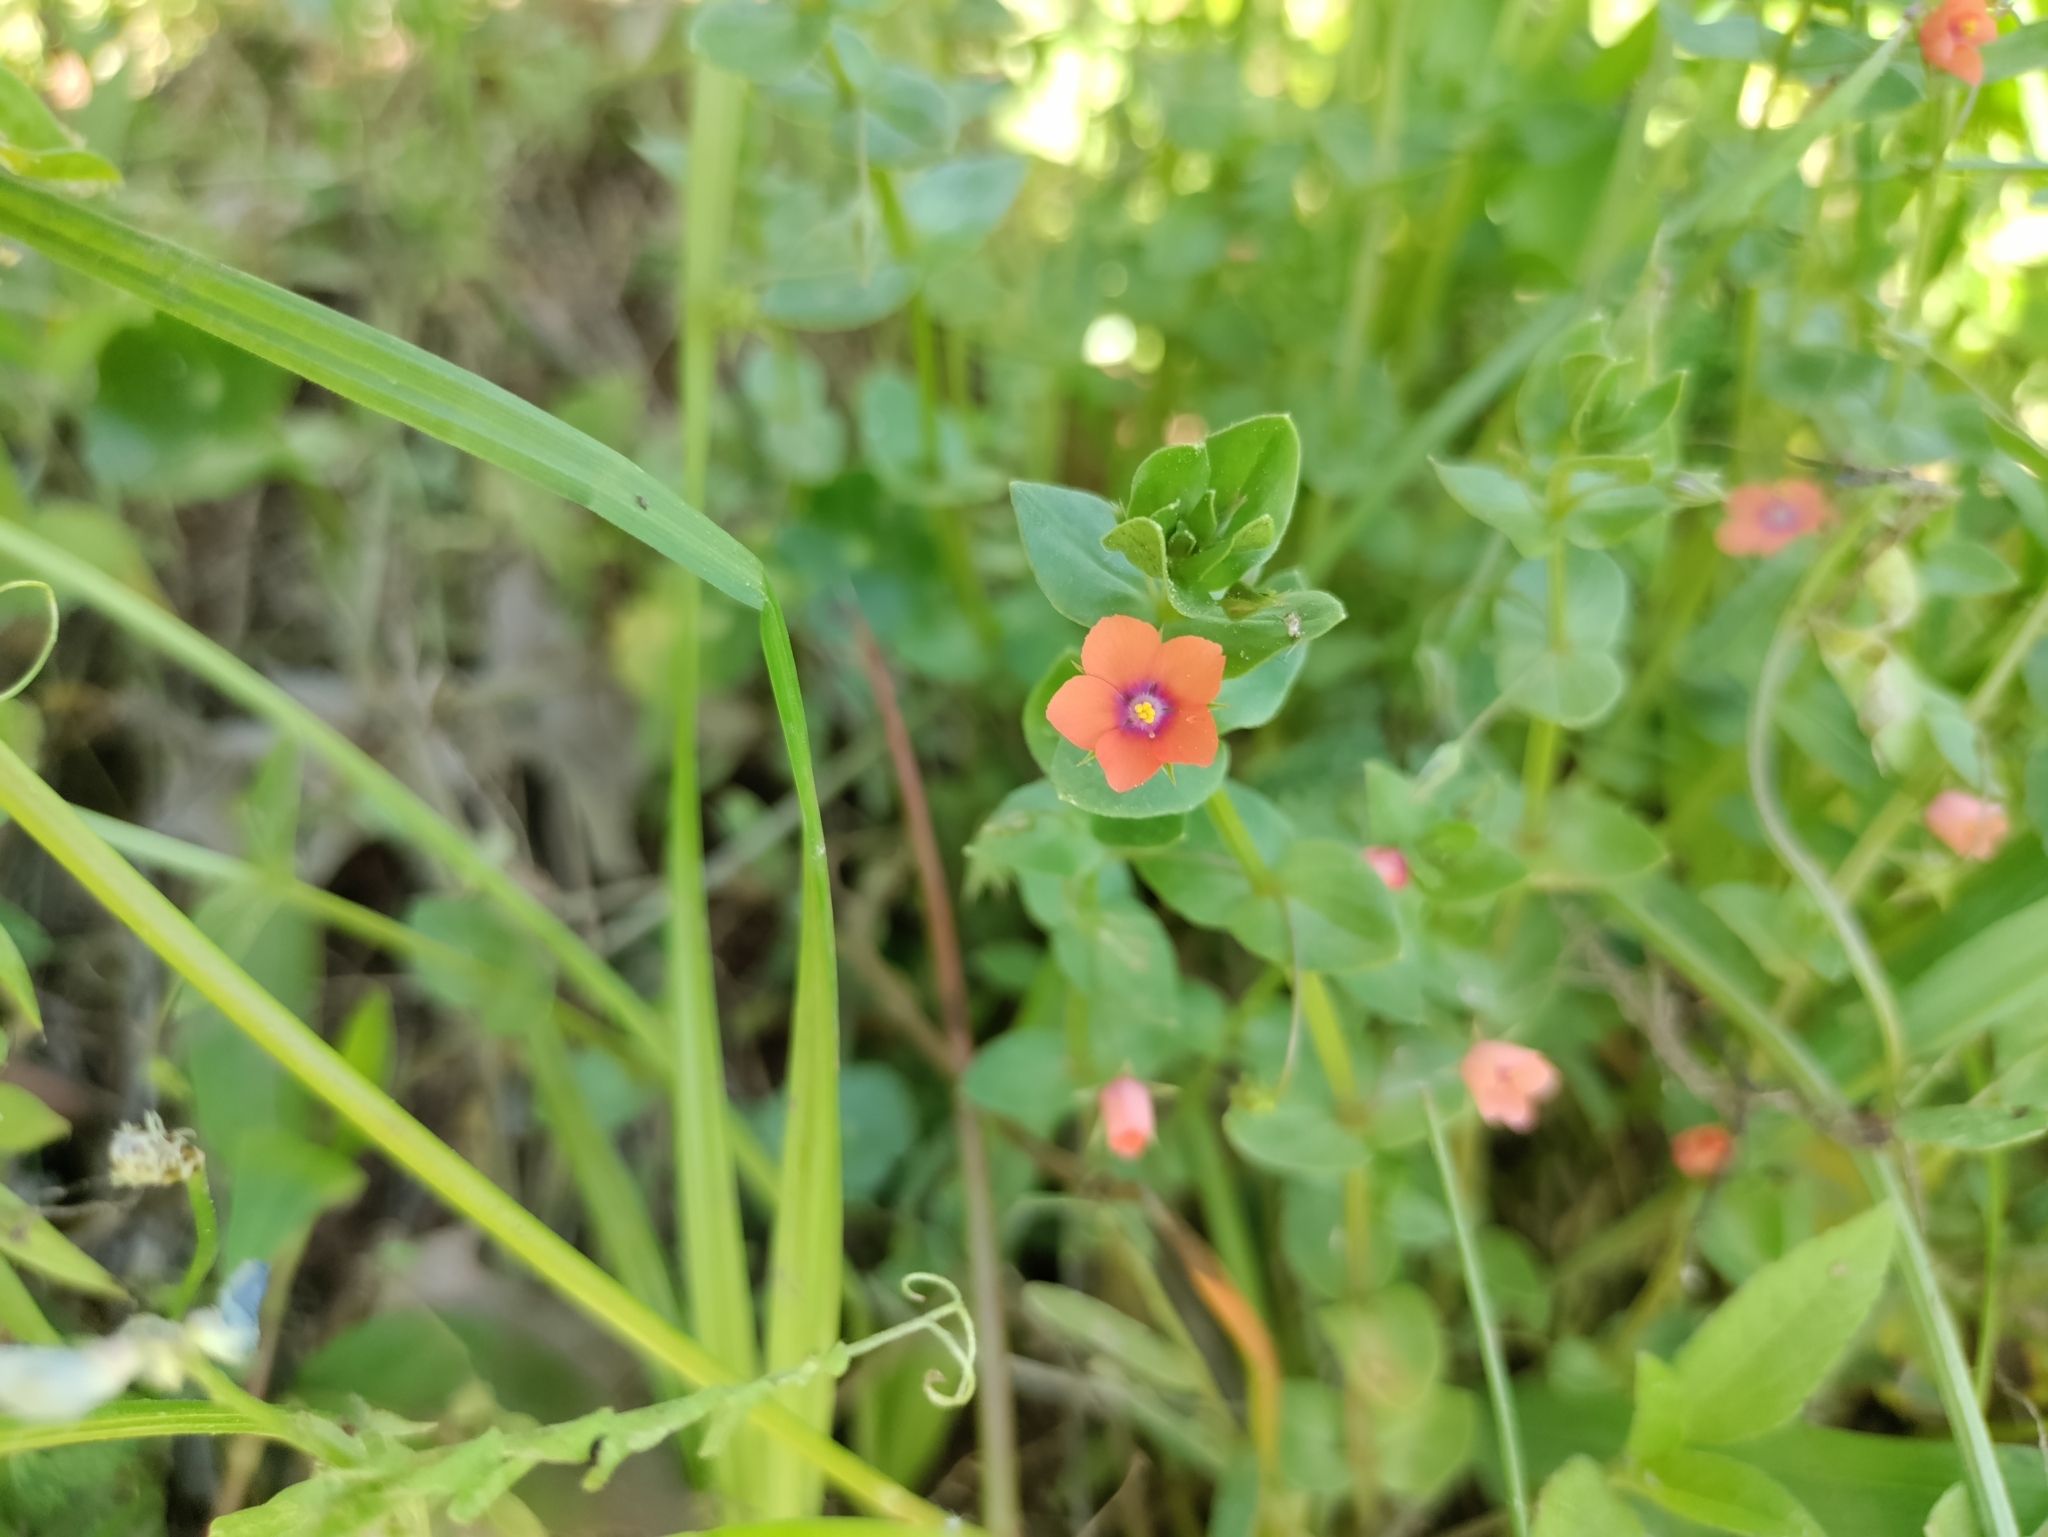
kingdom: Plantae
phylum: Tracheophyta
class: Magnoliopsida
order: Ericales
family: Primulaceae
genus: Lysimachia
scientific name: Lysimachia arvensis
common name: Scarlet pimpernel
